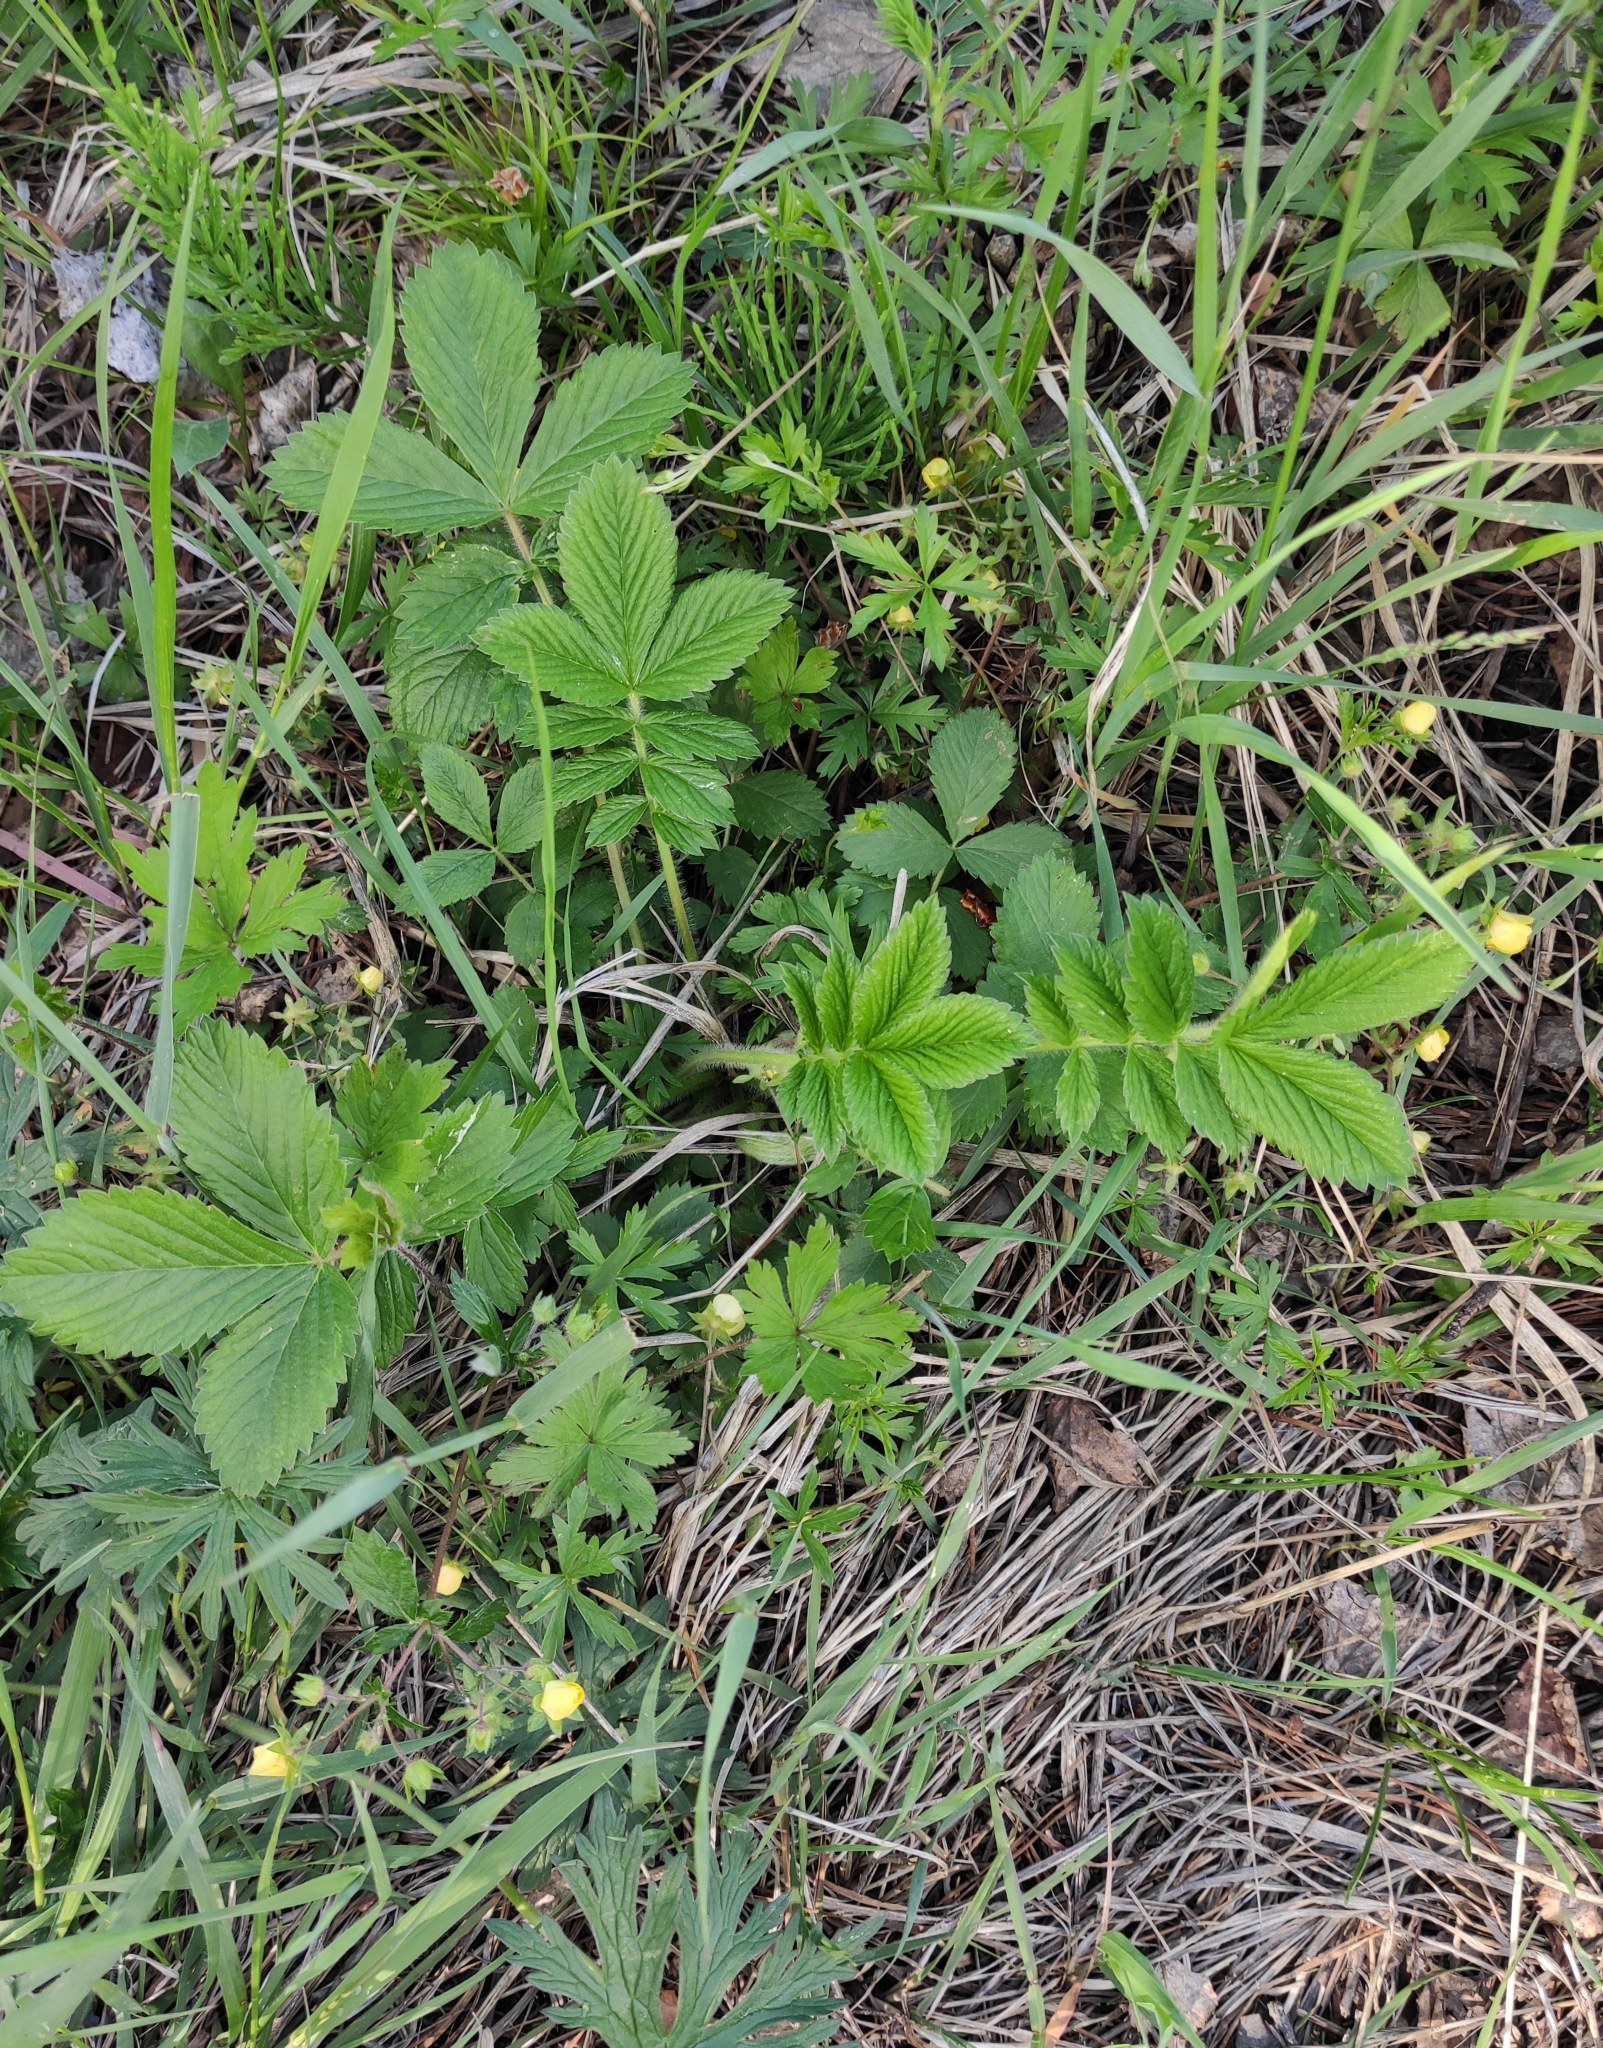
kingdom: Plantae
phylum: Tracheophyta
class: Magnoliopsida
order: Rosales
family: Rosaceae
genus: Potentilla
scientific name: Potentilla fragarioides
